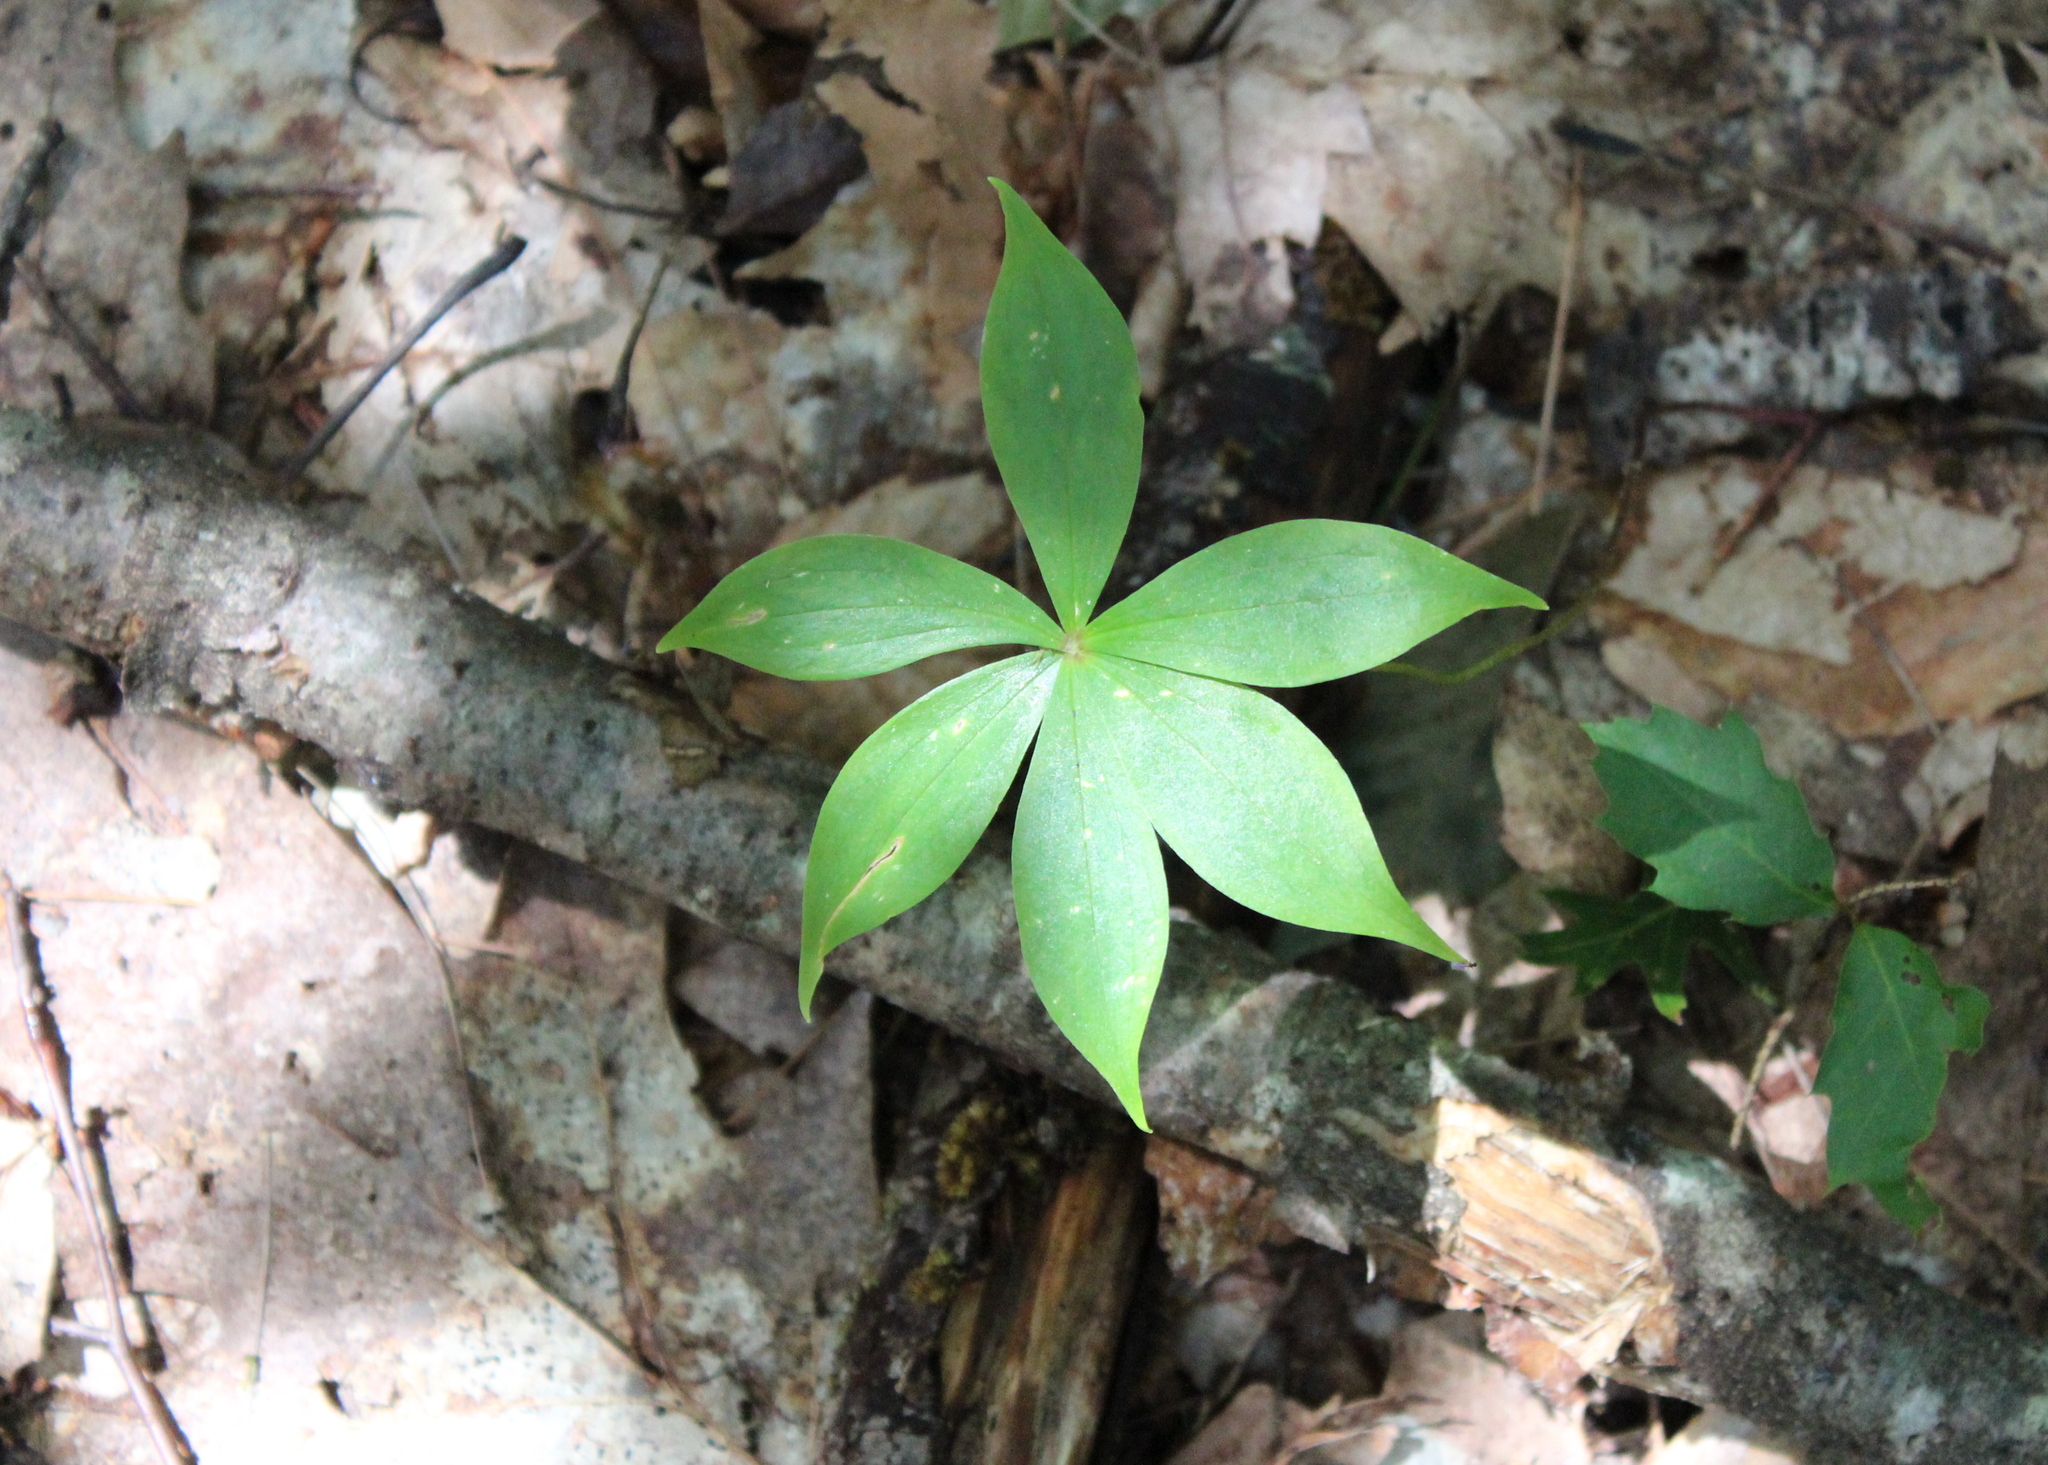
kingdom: Plantae
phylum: Tracheophyta
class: Liliopsida
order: Liliales
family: Liliaceae
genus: Medeola
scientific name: Medeola virginiana
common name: Indian cucumber-root
